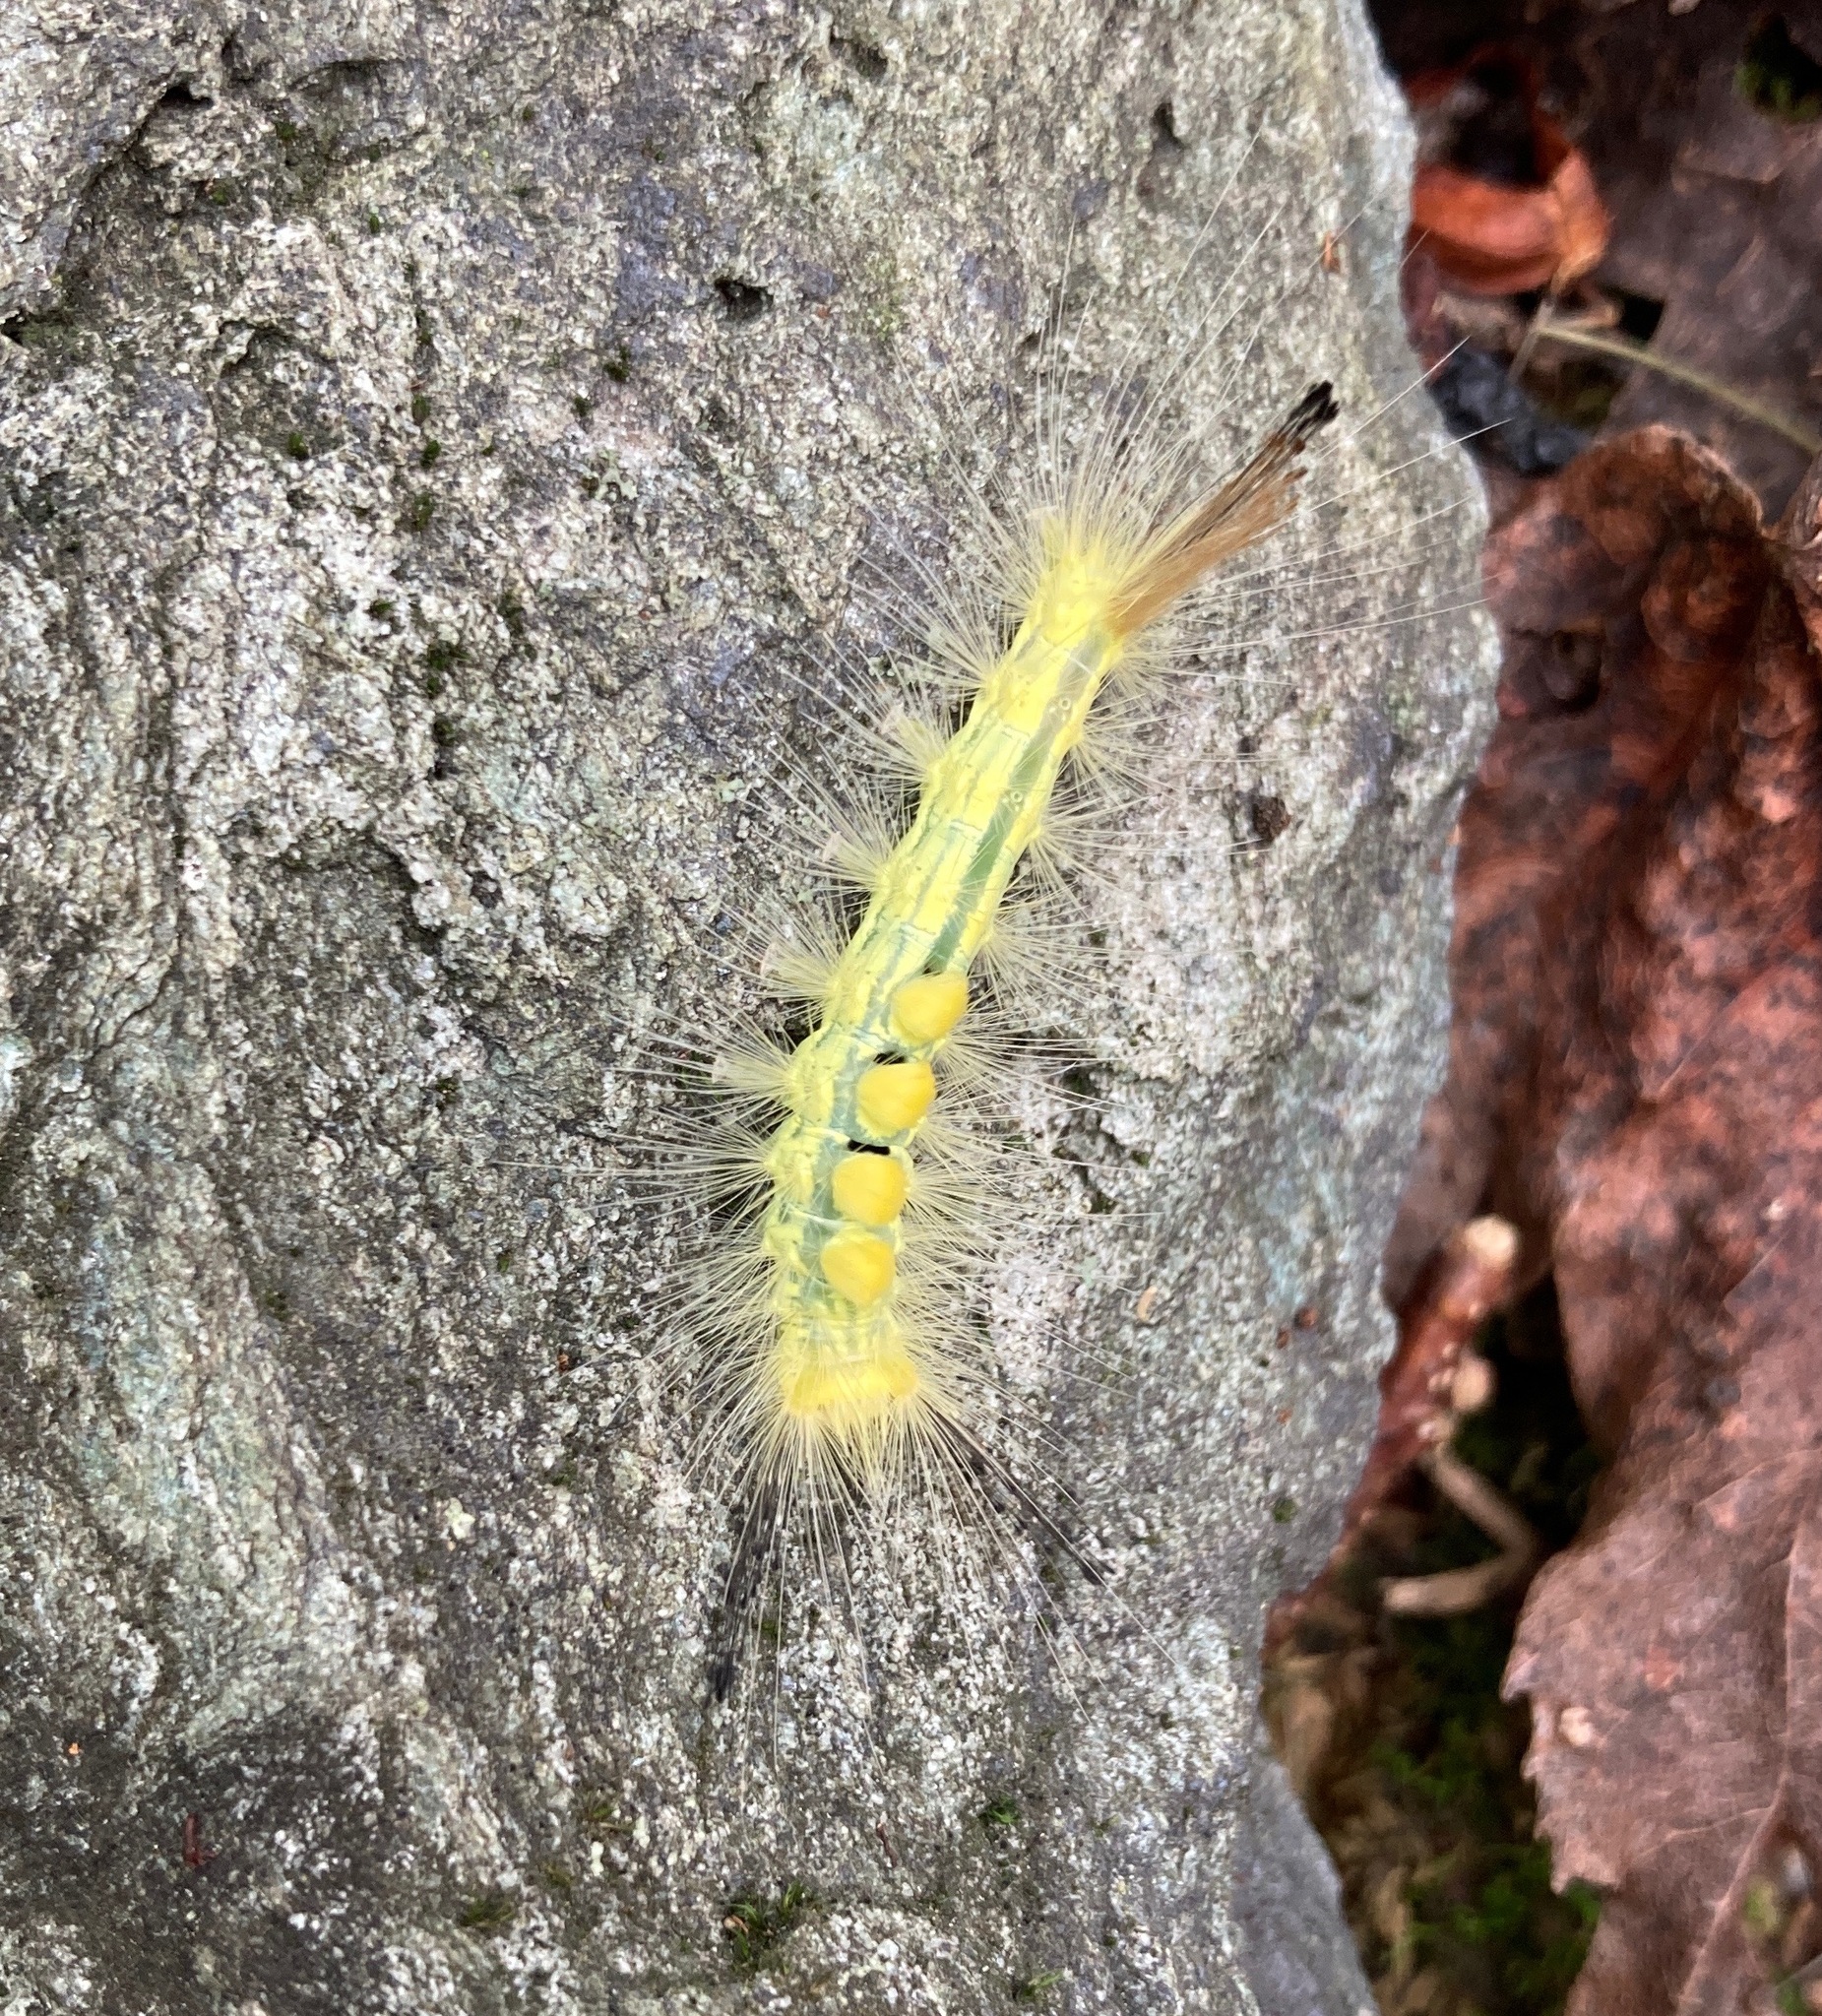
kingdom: Animalia
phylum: Arthropoda
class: Insecta
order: Lepidoptera
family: Erebidae
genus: Orgyia
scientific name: Orgyia definita
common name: Definite tussock moth
